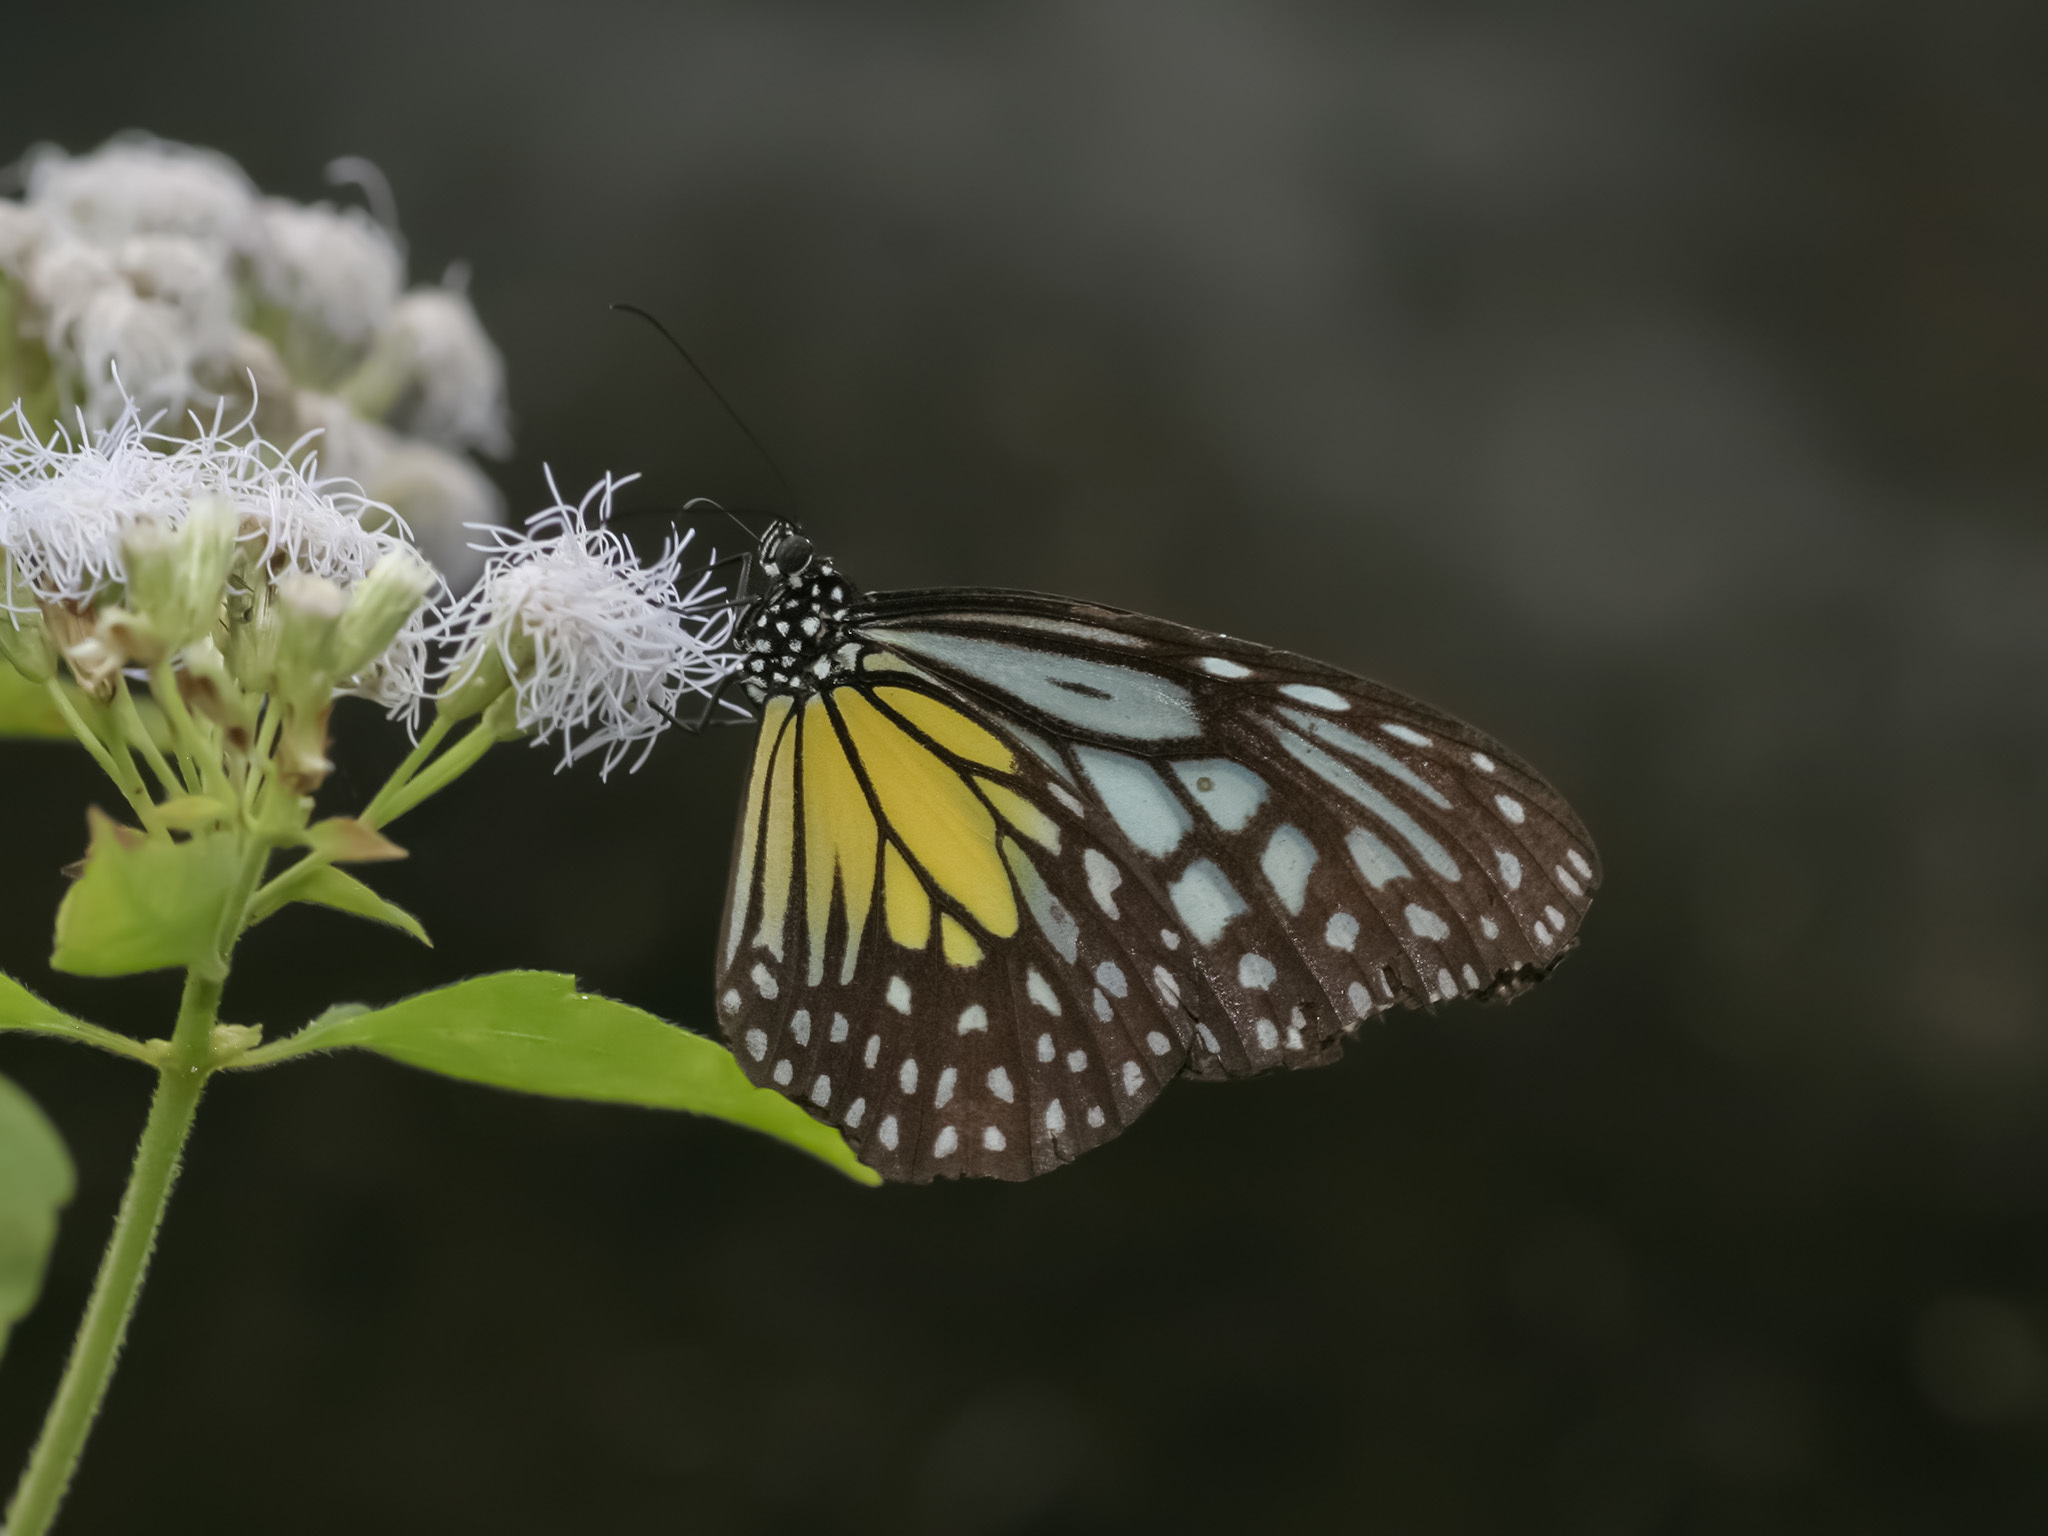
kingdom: Animalia
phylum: Arthropoda
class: Insecta
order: Lepidoptera
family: Nymphalidae
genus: Parantica
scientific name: Parantica aspasia
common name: Yellow glassy tiger
